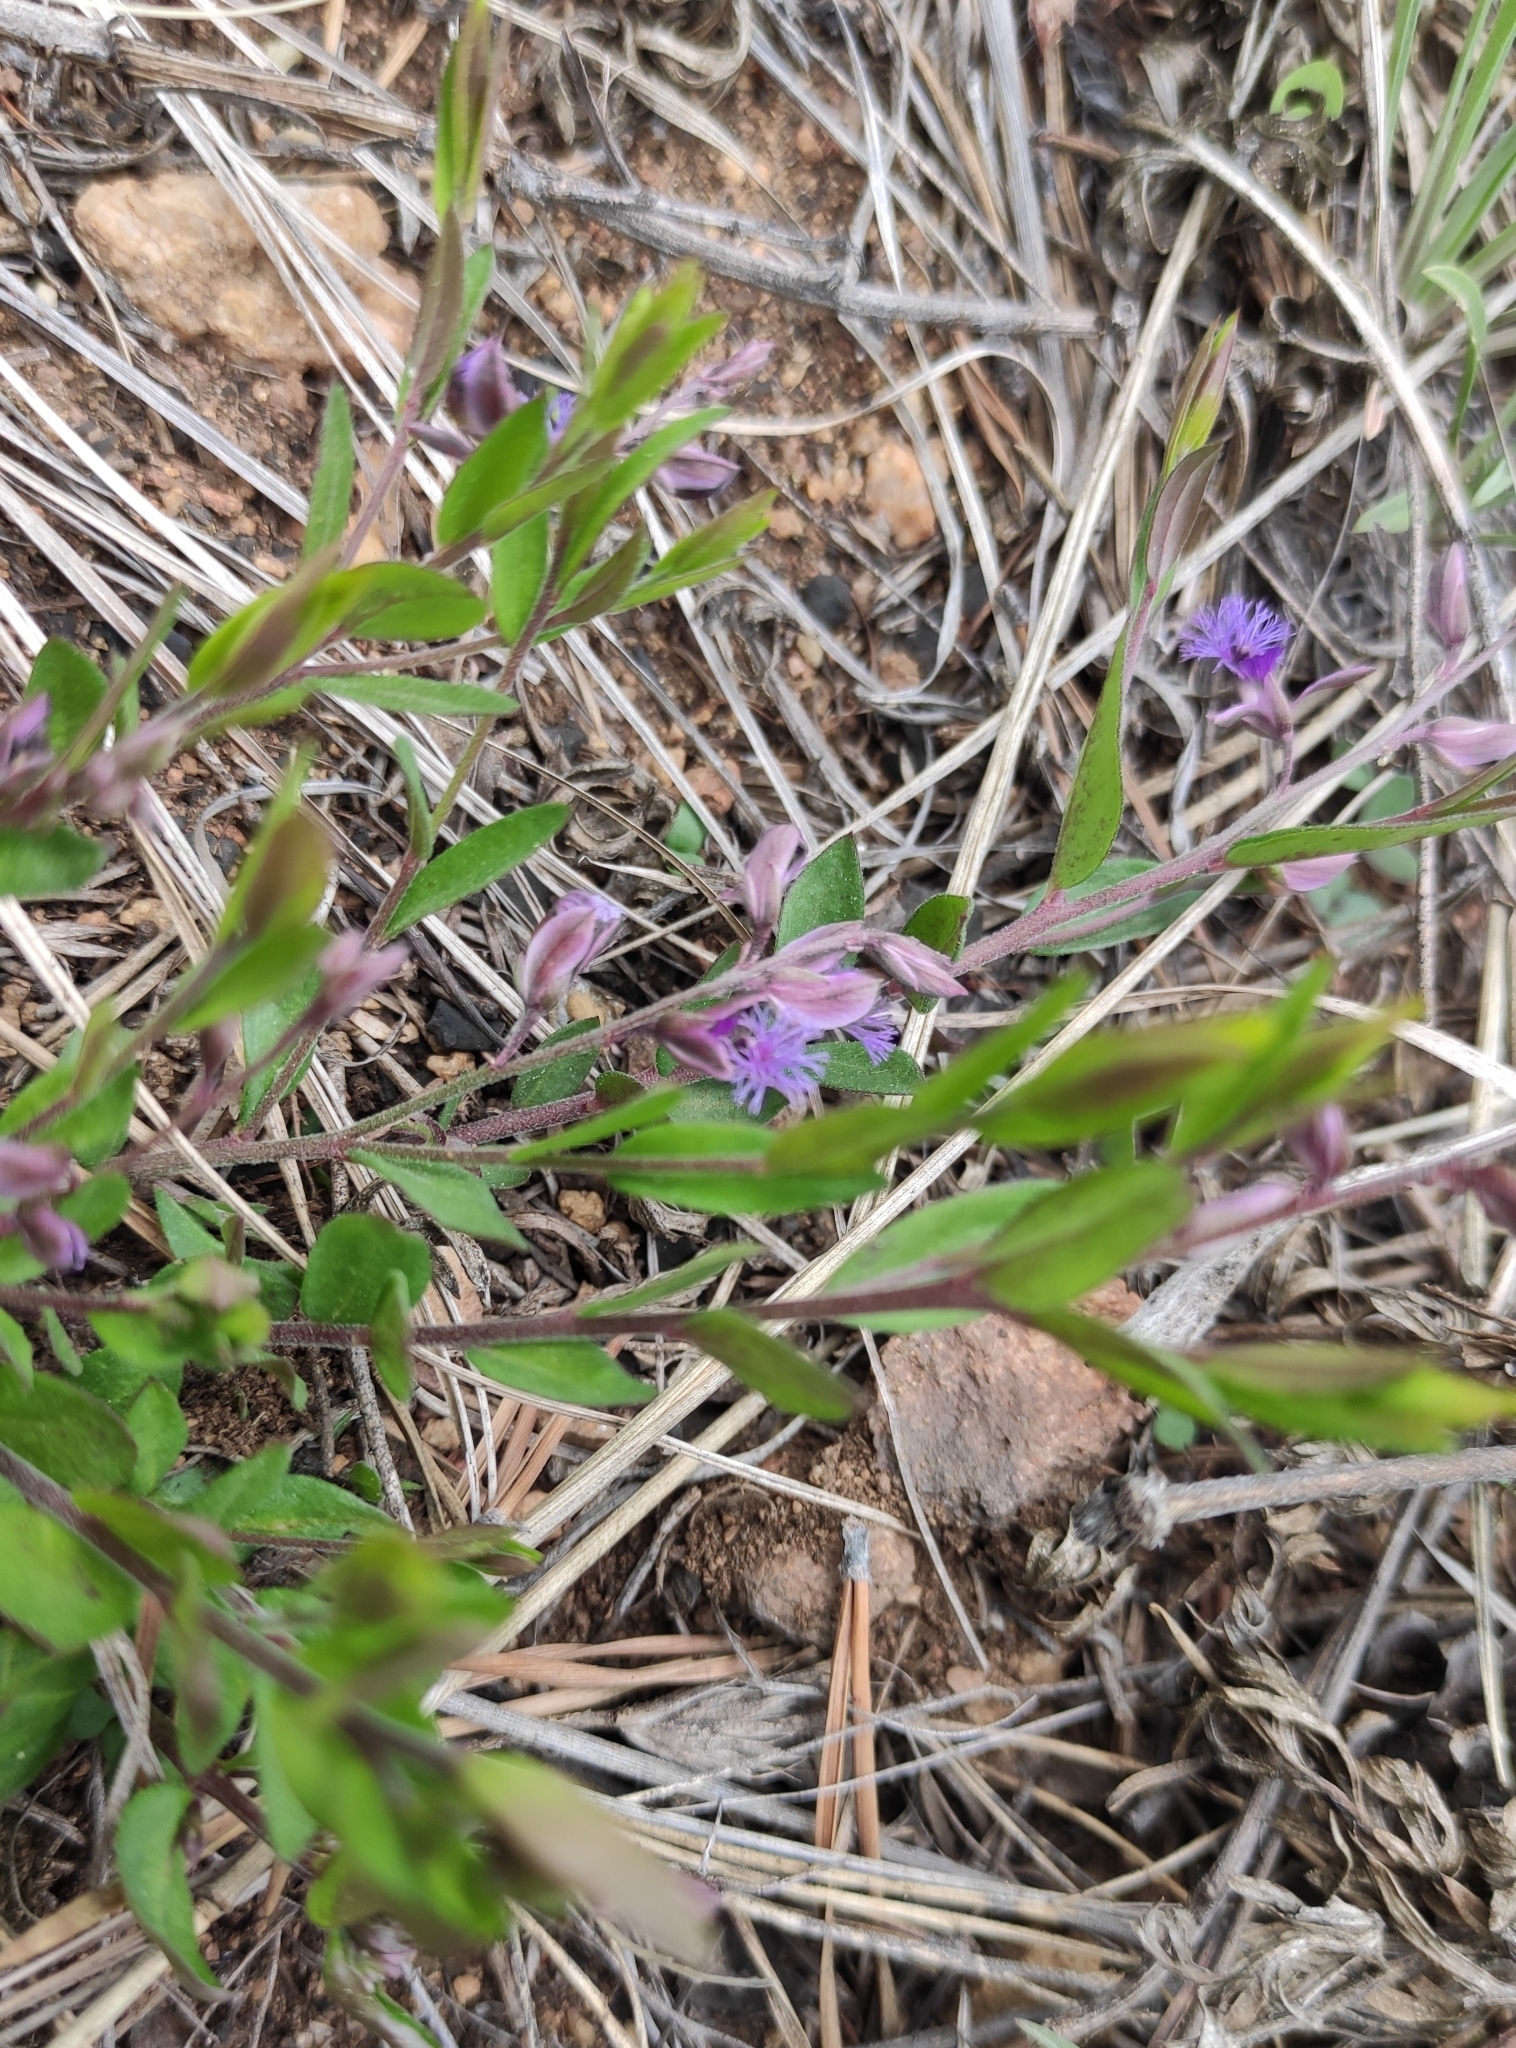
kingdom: Plantae
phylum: Tracheophyta
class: Magnoliopsida
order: Fabales
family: Polygalaceae
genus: Polygala
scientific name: Polygala sibirica
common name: Siberian polygala
